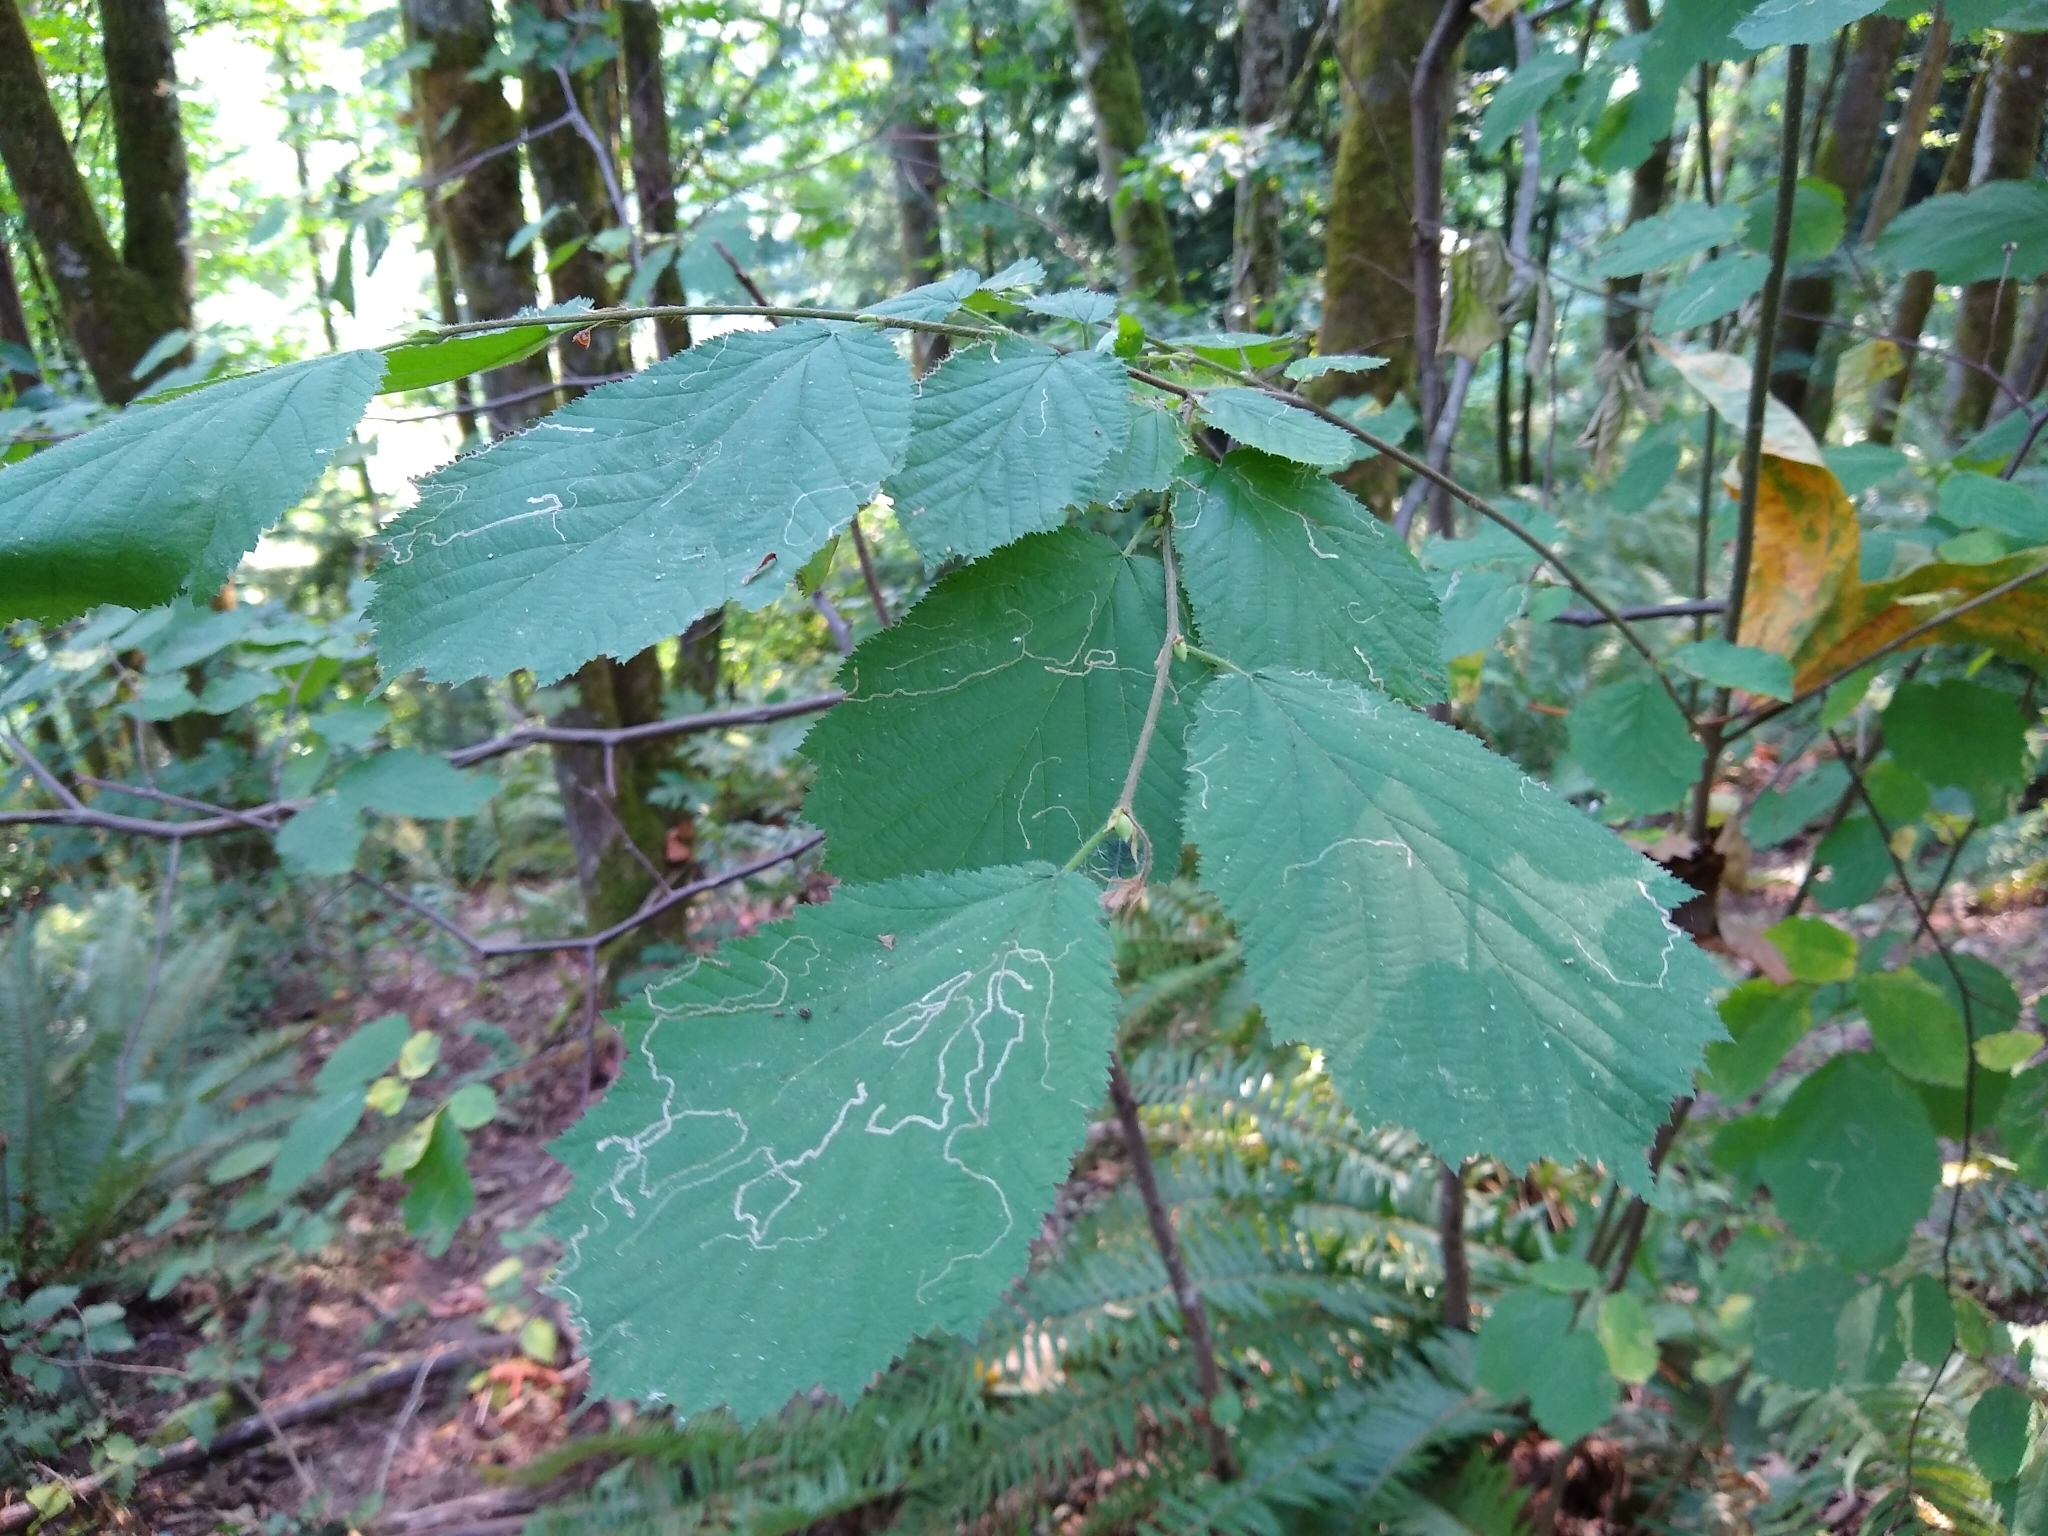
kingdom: Plantae
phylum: Tracheophyta
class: Magnoliopsida
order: Fagales
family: Betulaceae
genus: Corylus
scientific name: Corylus cornuta
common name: Beaked hazel
